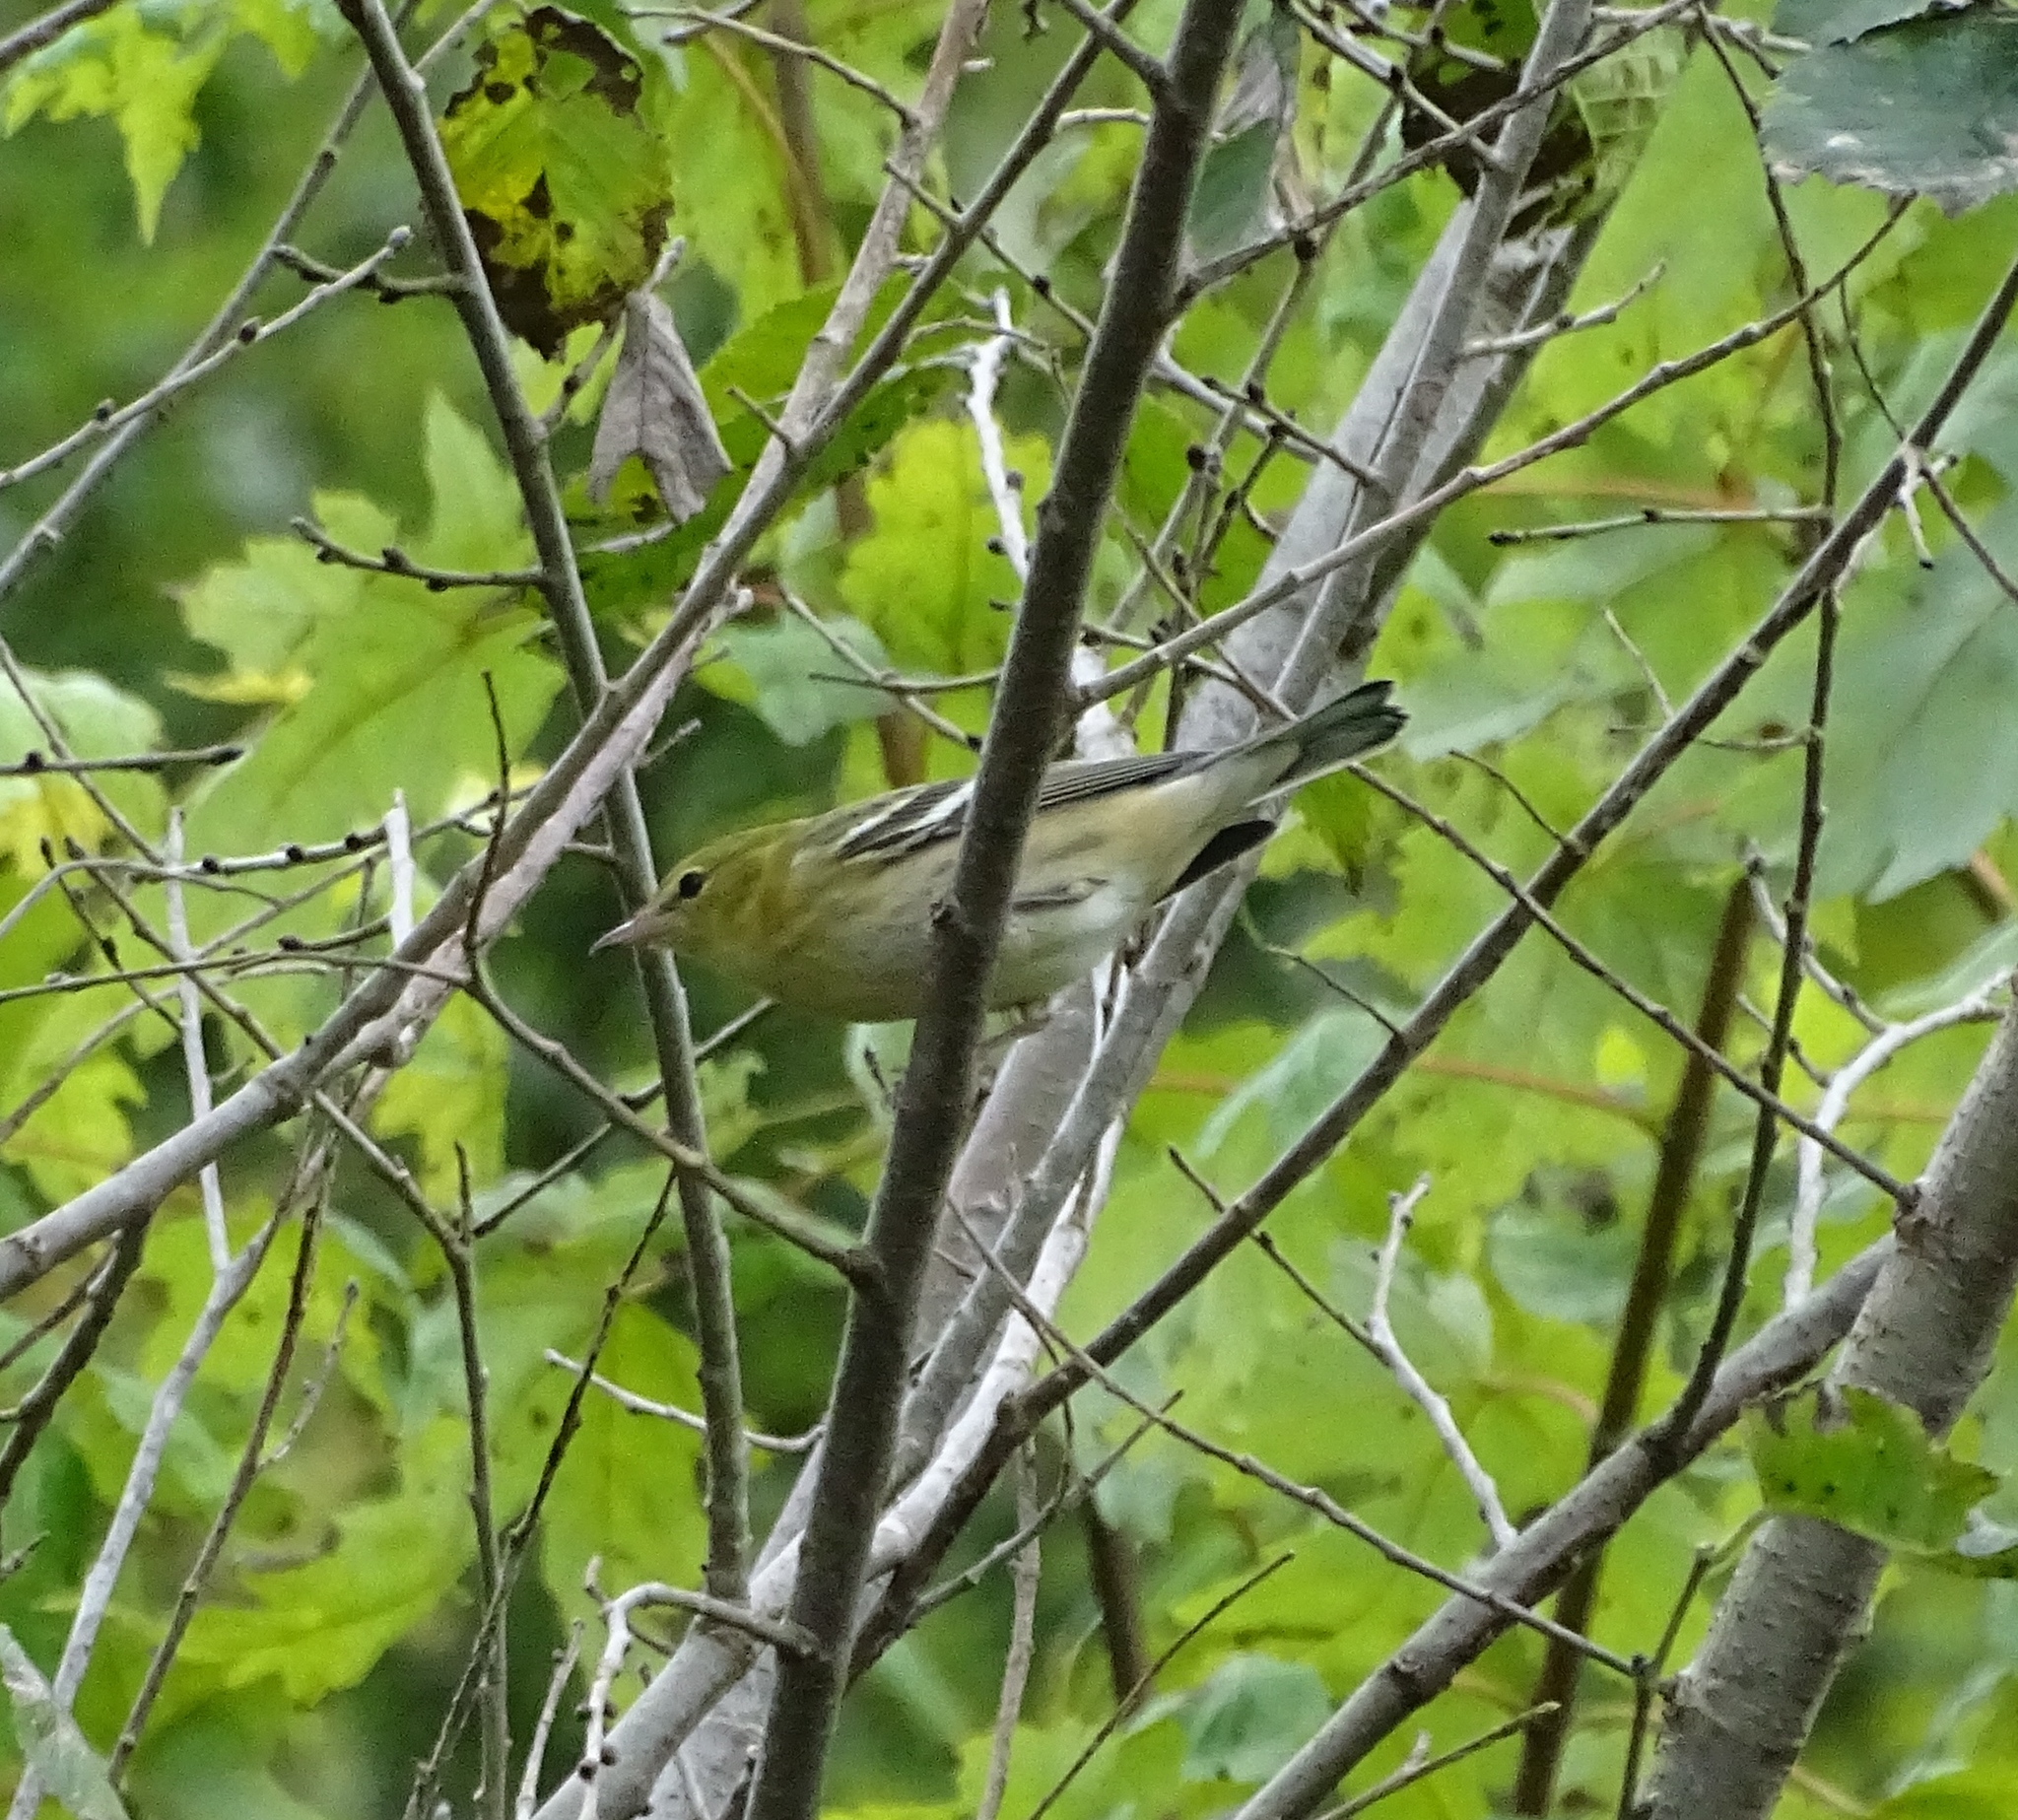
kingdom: Animalia
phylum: Chordata
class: Aves
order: Passeriformes
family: Parulidae
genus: Setophaga
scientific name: Setophaga castanea
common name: Bay-breasted warbler
